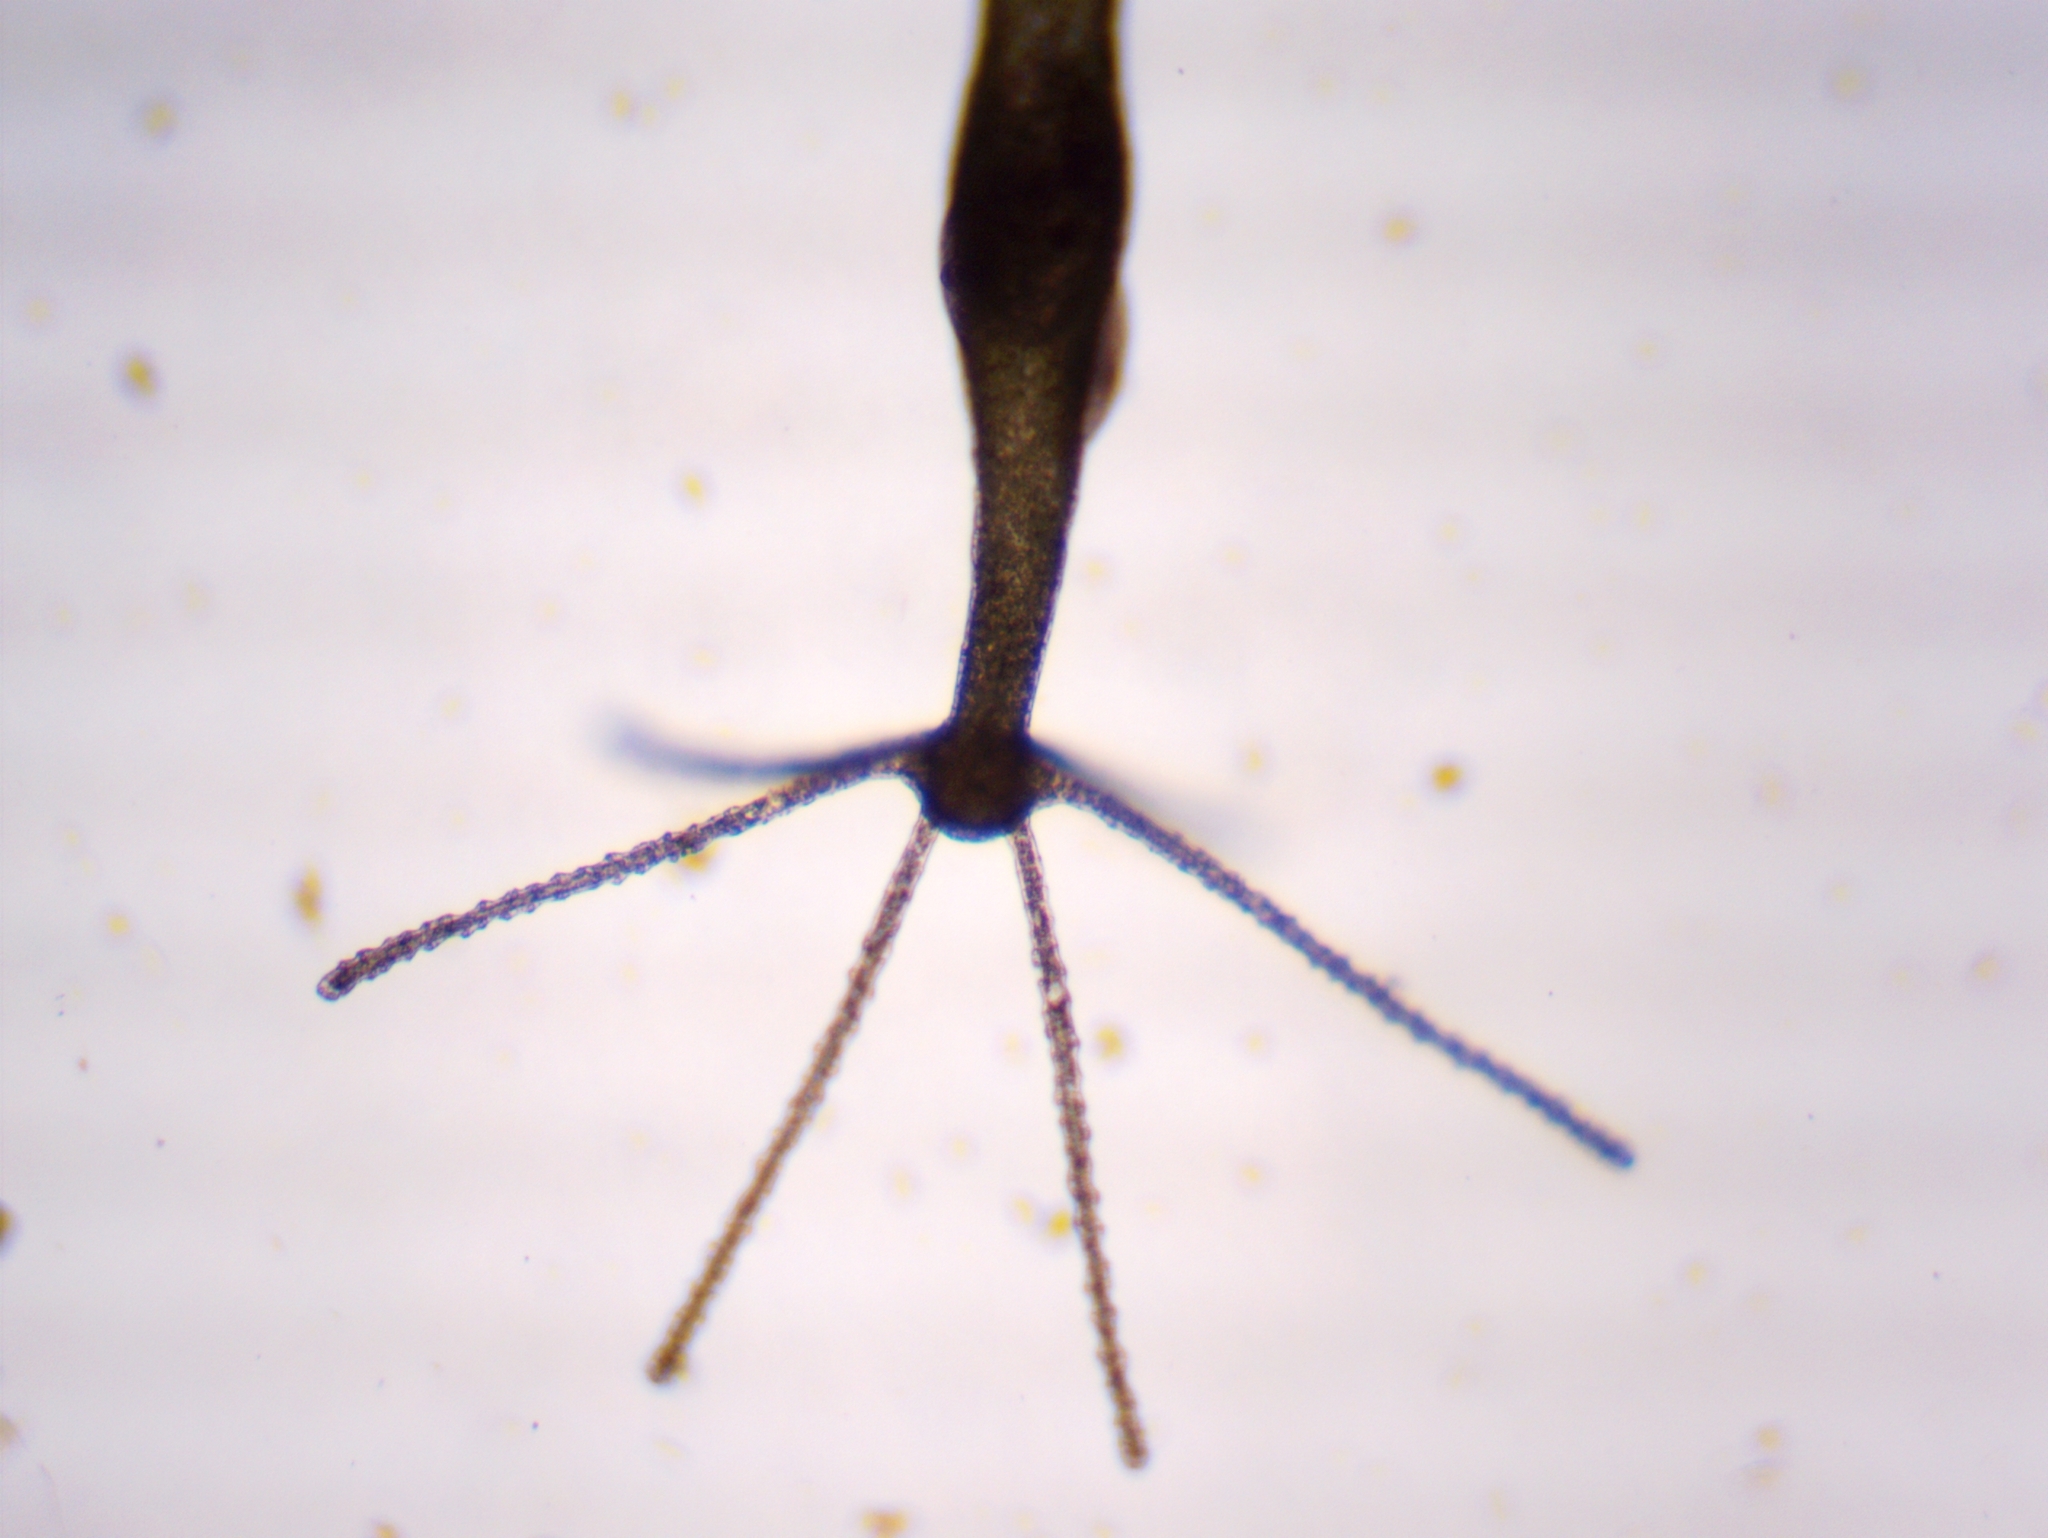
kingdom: Animalia
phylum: Cnidaria
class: Hydrozoa
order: Anthoathecata
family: Hydridae
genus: Hydra
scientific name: Hydra viridissima
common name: Green hydra
